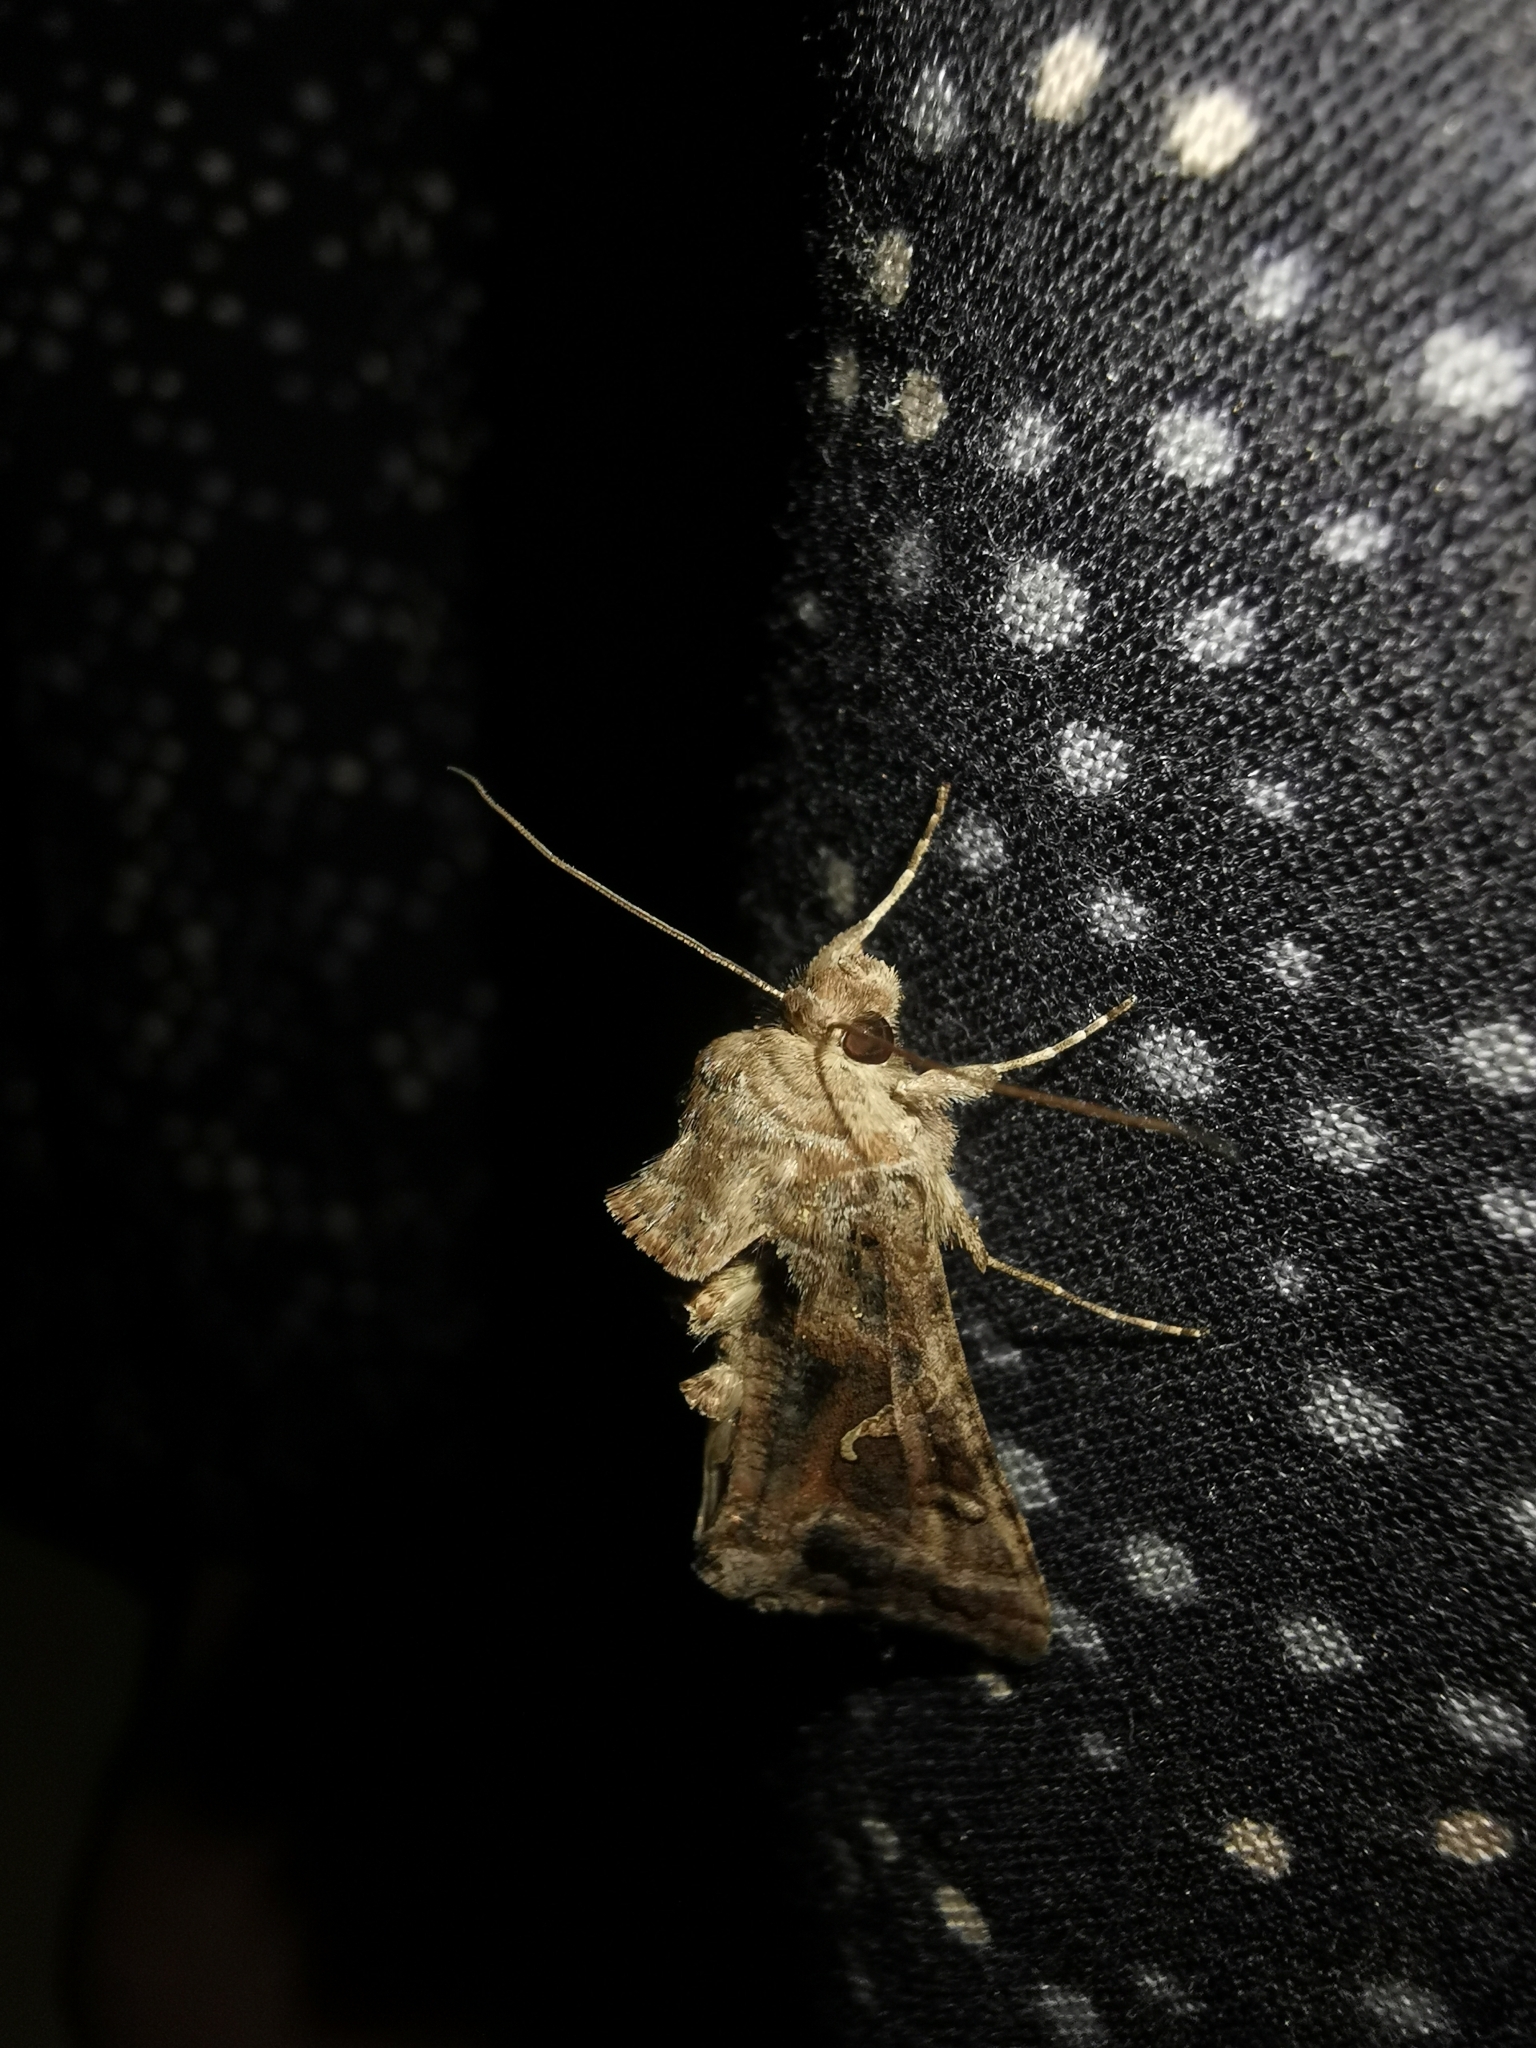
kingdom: Animalia
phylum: Arthropoda
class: Insecta
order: Lepidoptera
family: Noctuidae
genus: Autographa
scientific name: Autographa gamma
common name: Silver y
